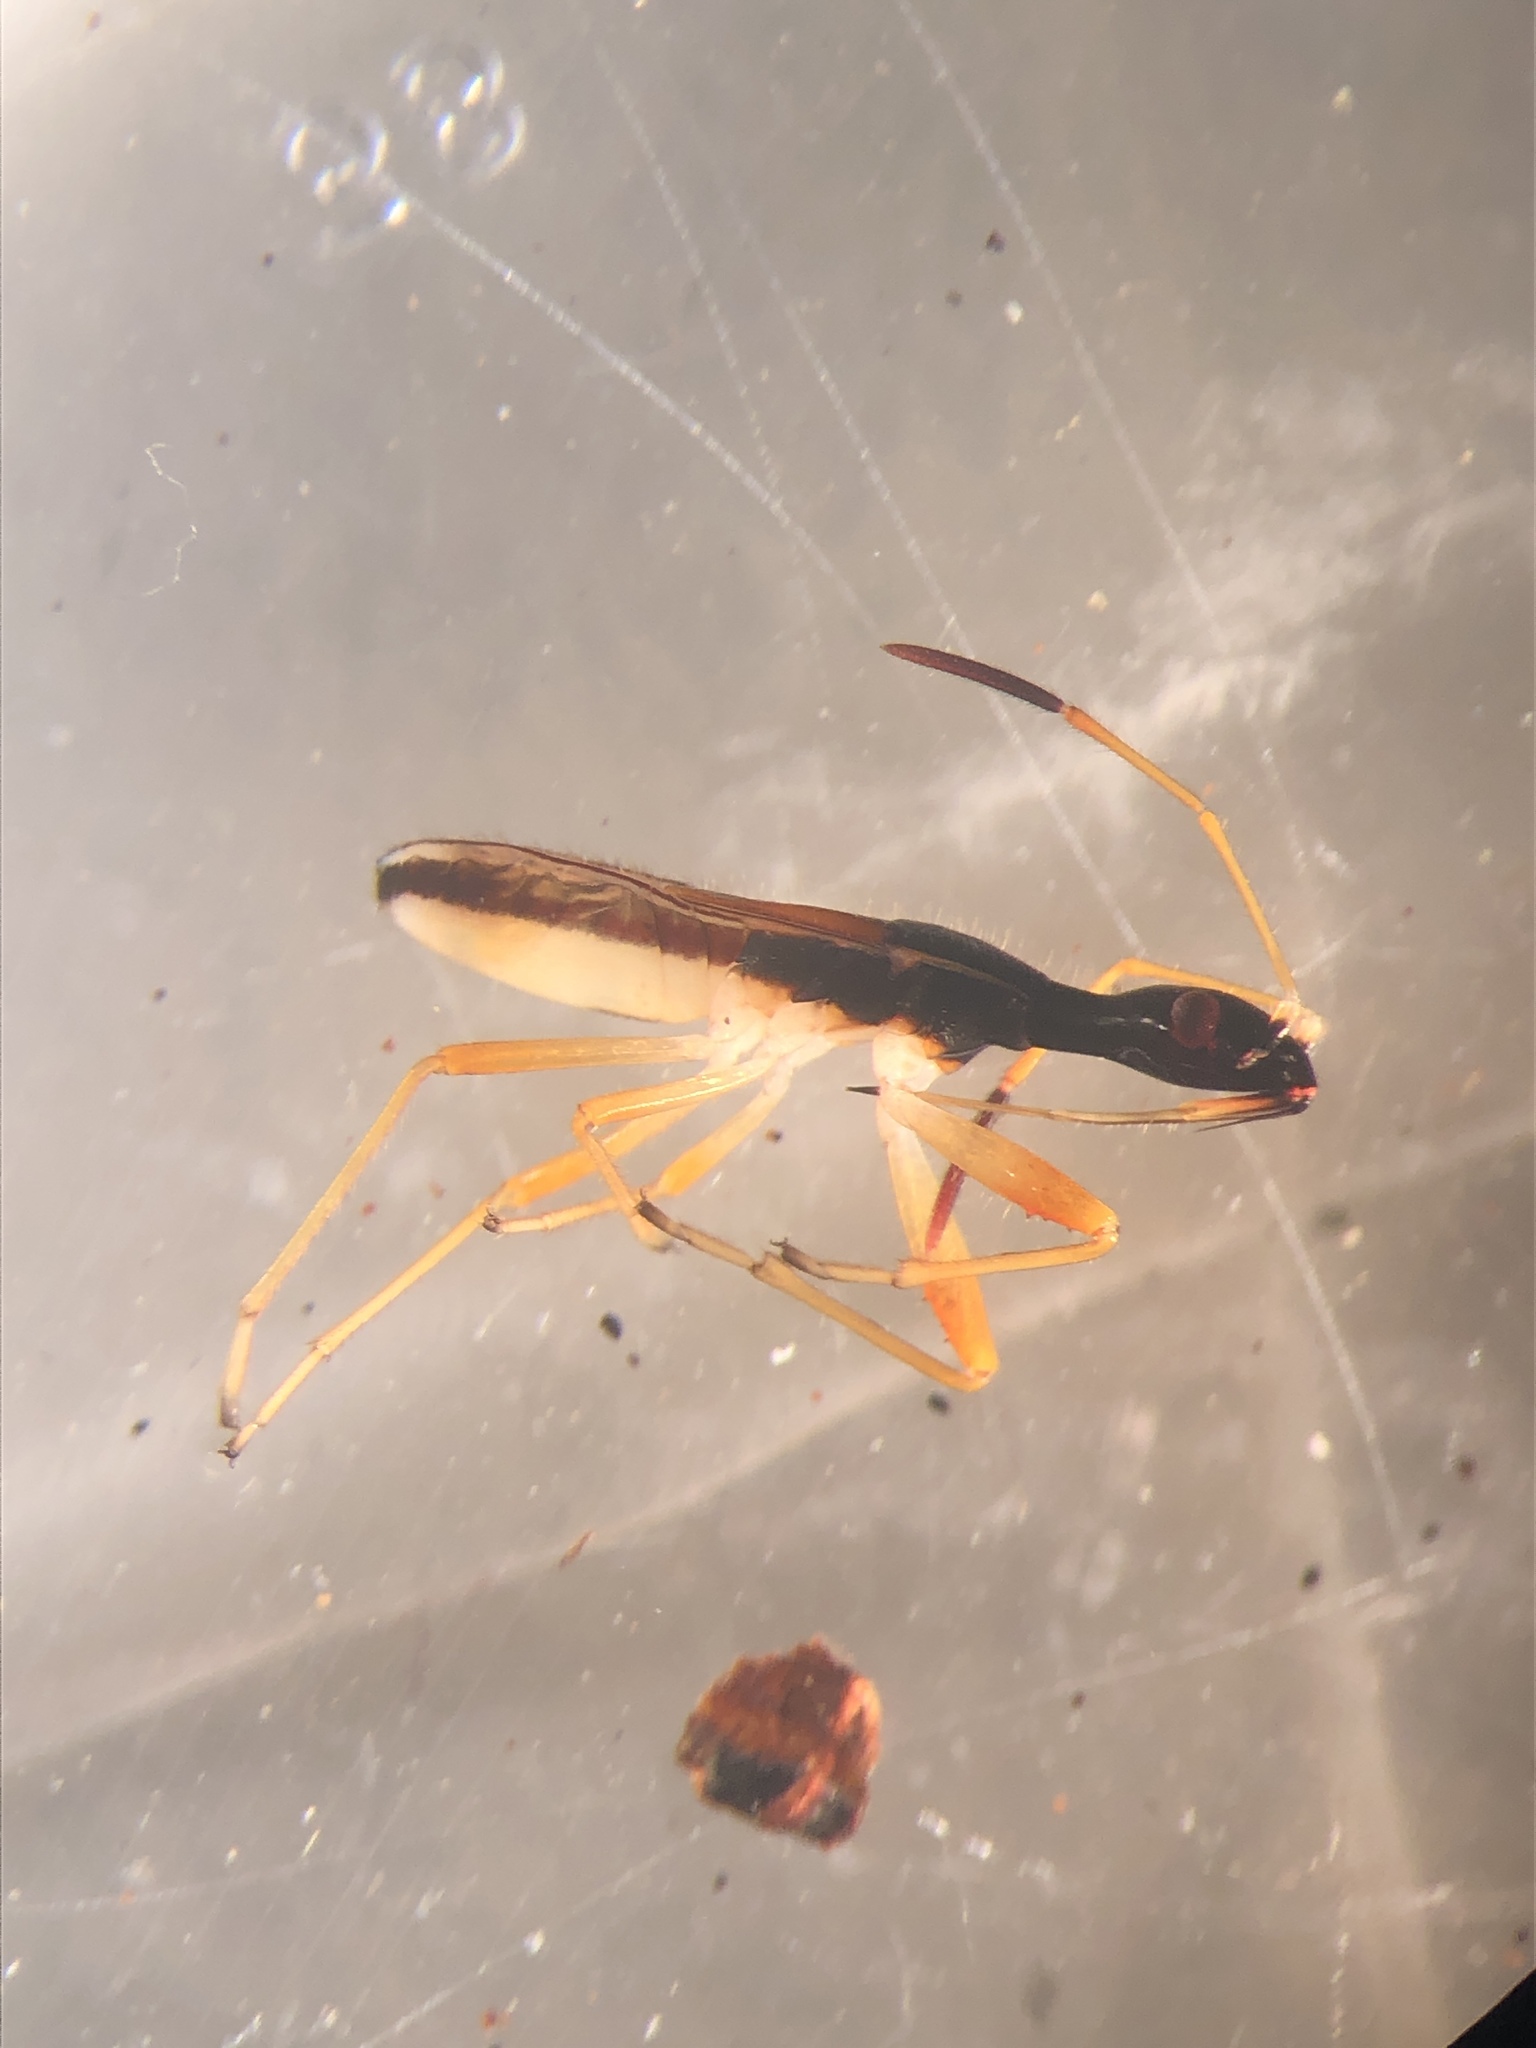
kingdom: Animalia
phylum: Arthropoda
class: Insecta
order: Hemiptera
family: Rhyparochromidae
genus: Myodocha
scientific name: Myodocha serripes
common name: Long-necked seed bug
